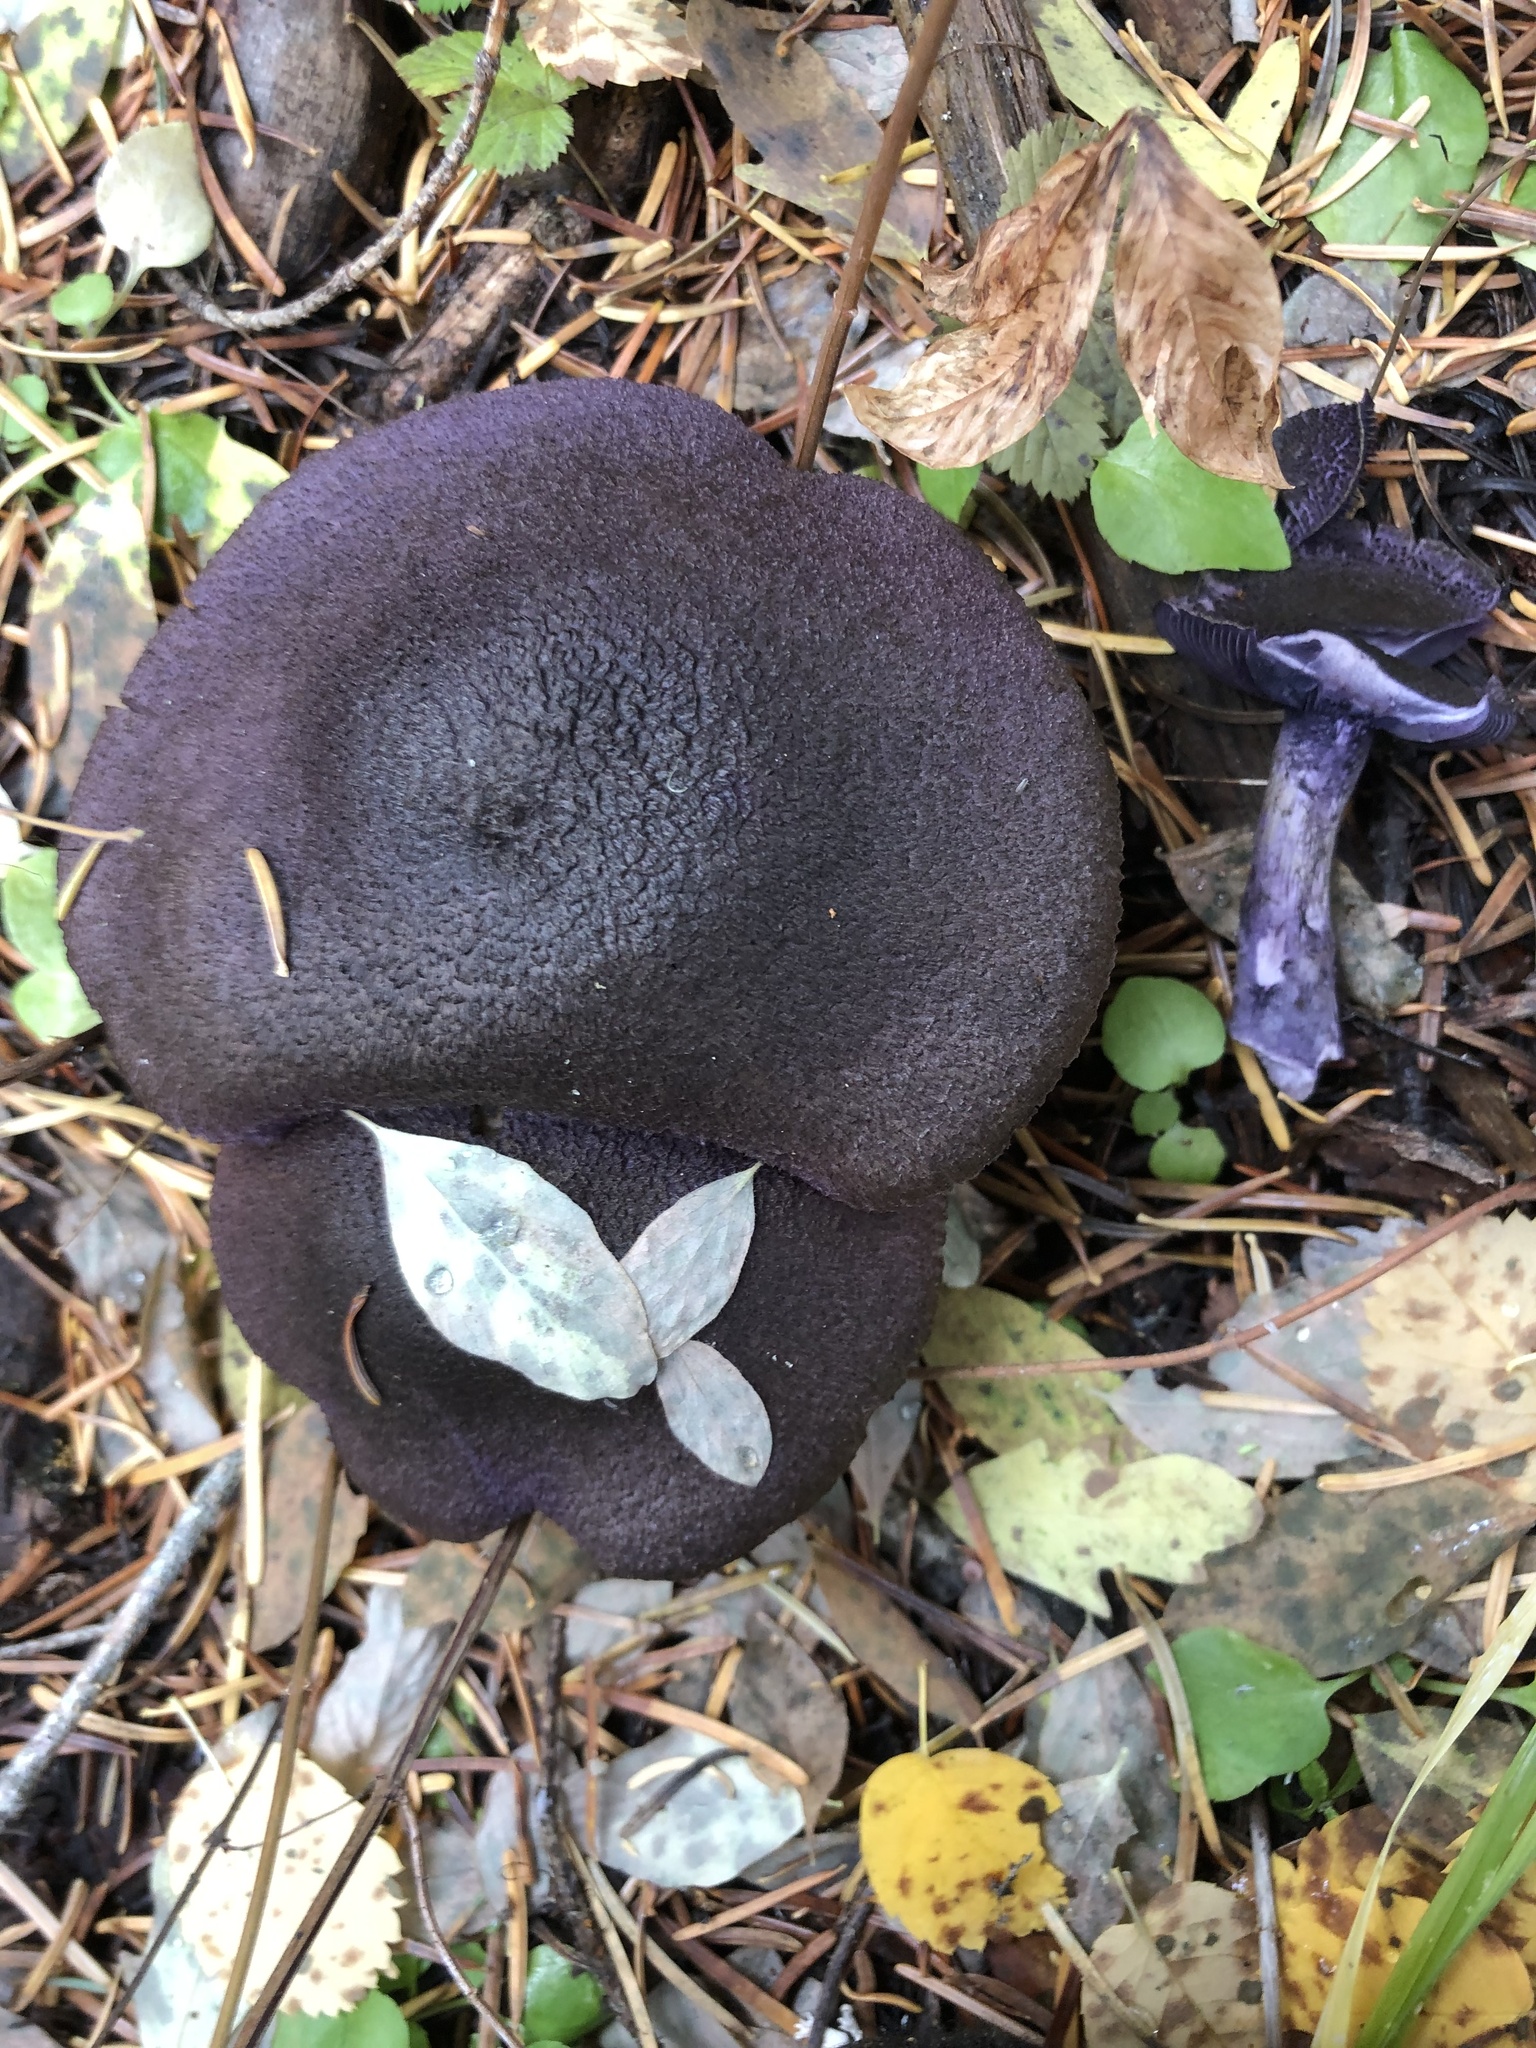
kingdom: Fungi
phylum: Basidiomycota
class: Agaricomycetes
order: Agaricales
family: Cortinariaceae
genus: Cortinarius
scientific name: Cortinarius violaceus
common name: Violet webcap
